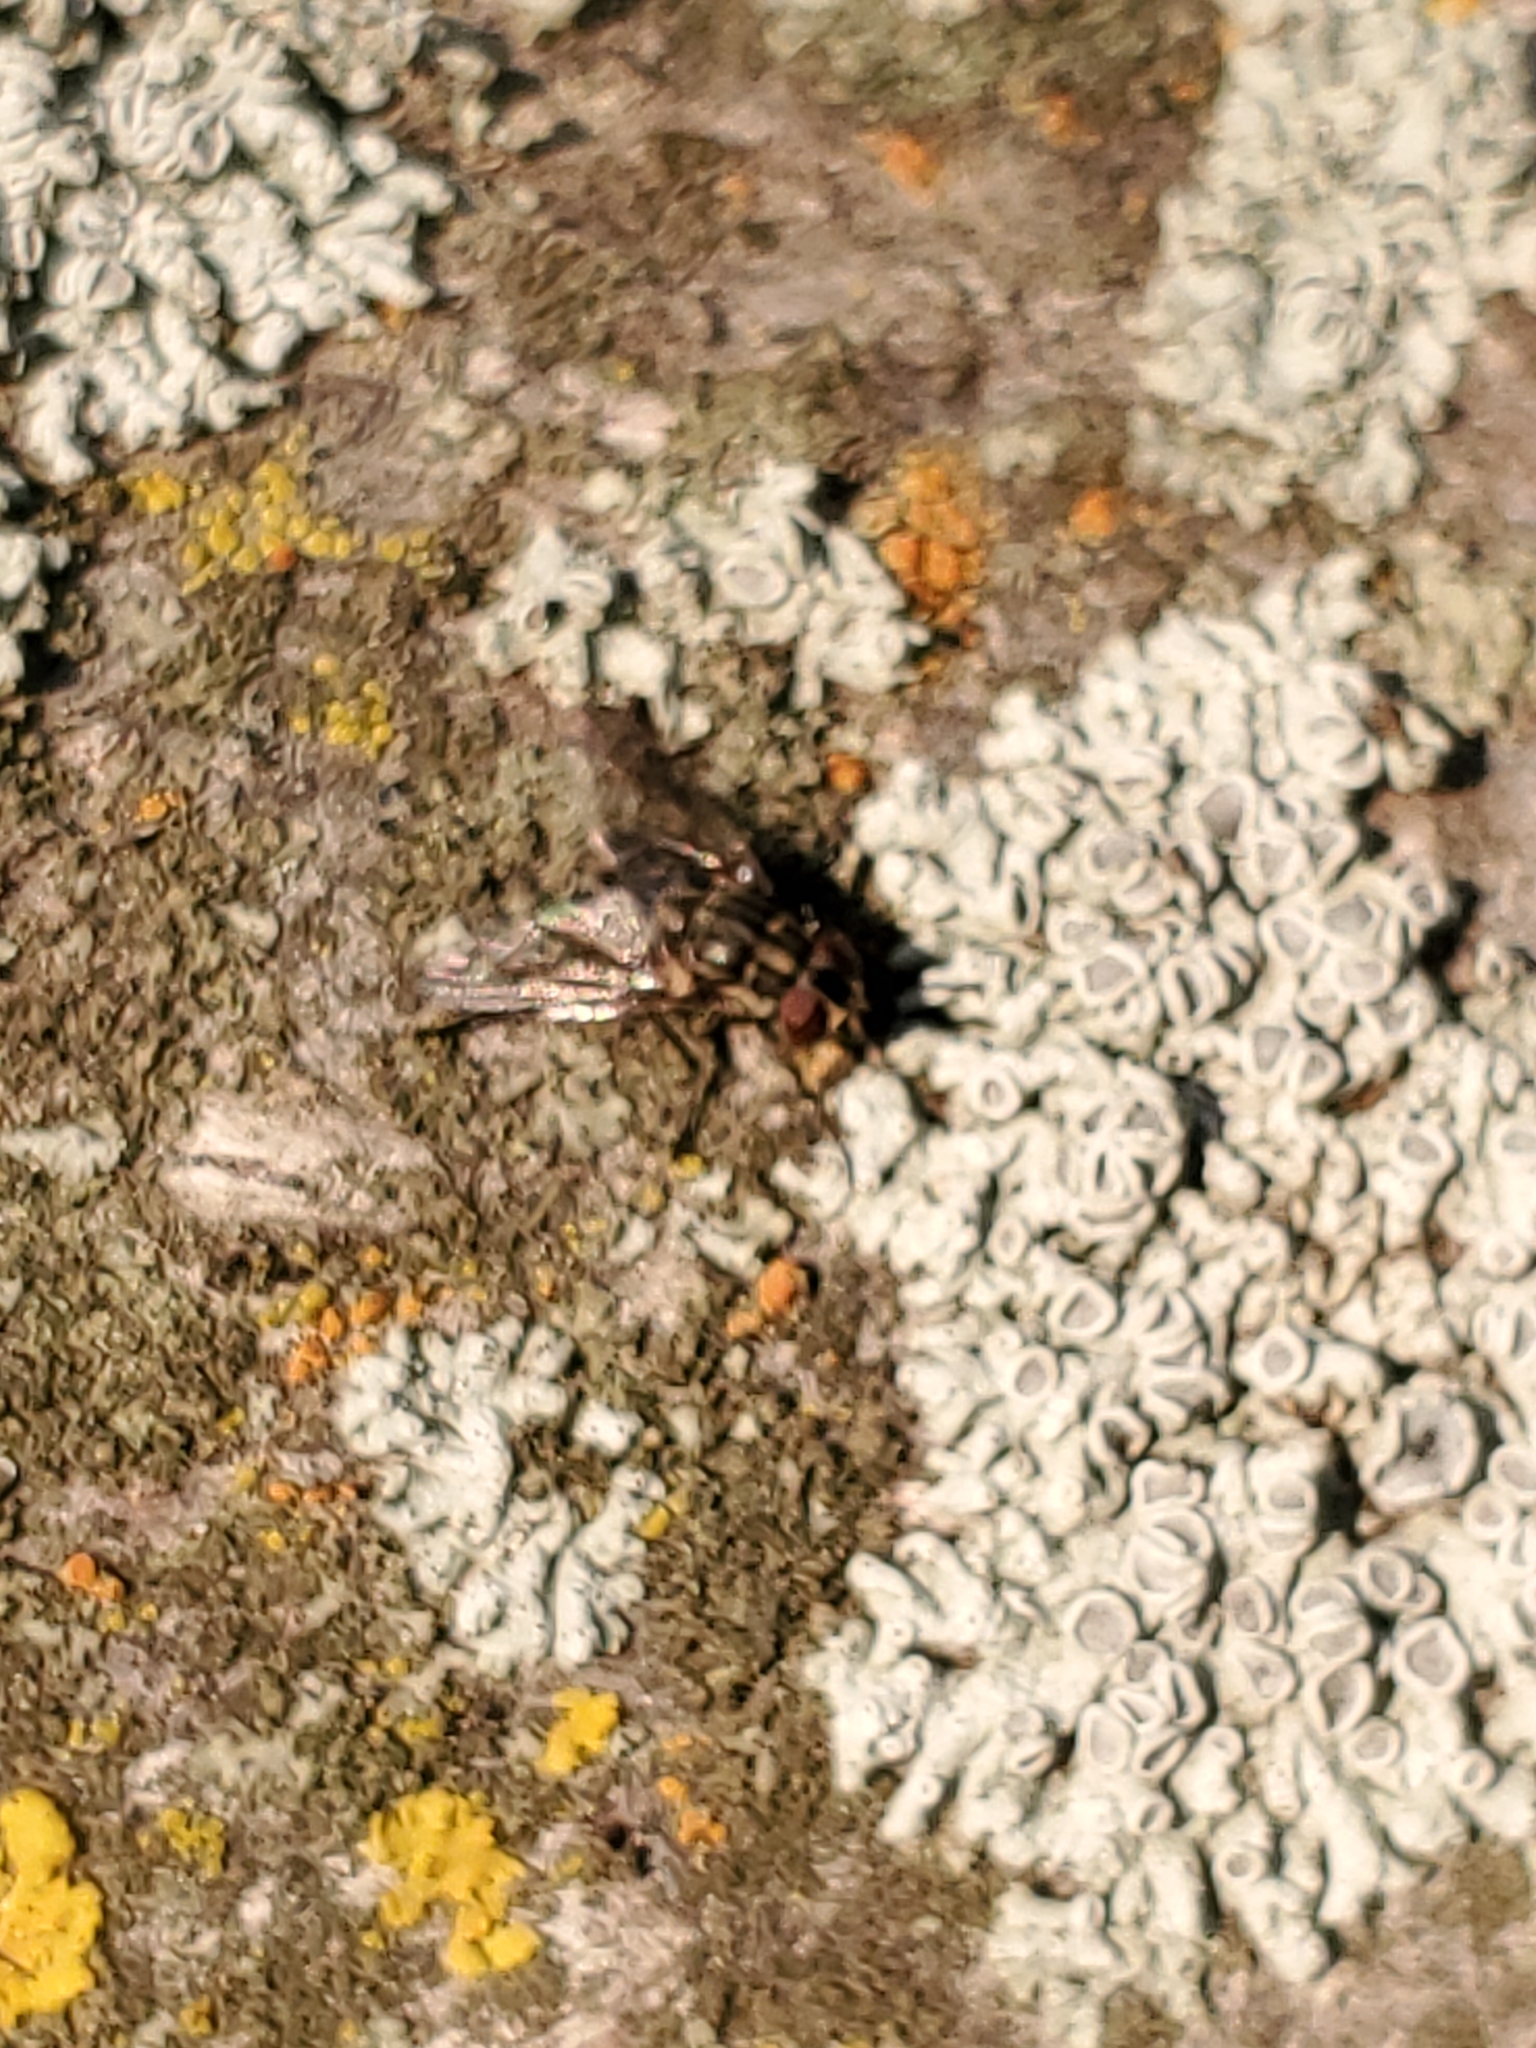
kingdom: Animalia
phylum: Arthropoda
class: Insecta
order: Diptera
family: Muscidae
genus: Stomoxys
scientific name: Stomoxys calcitrans
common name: Stable fly
